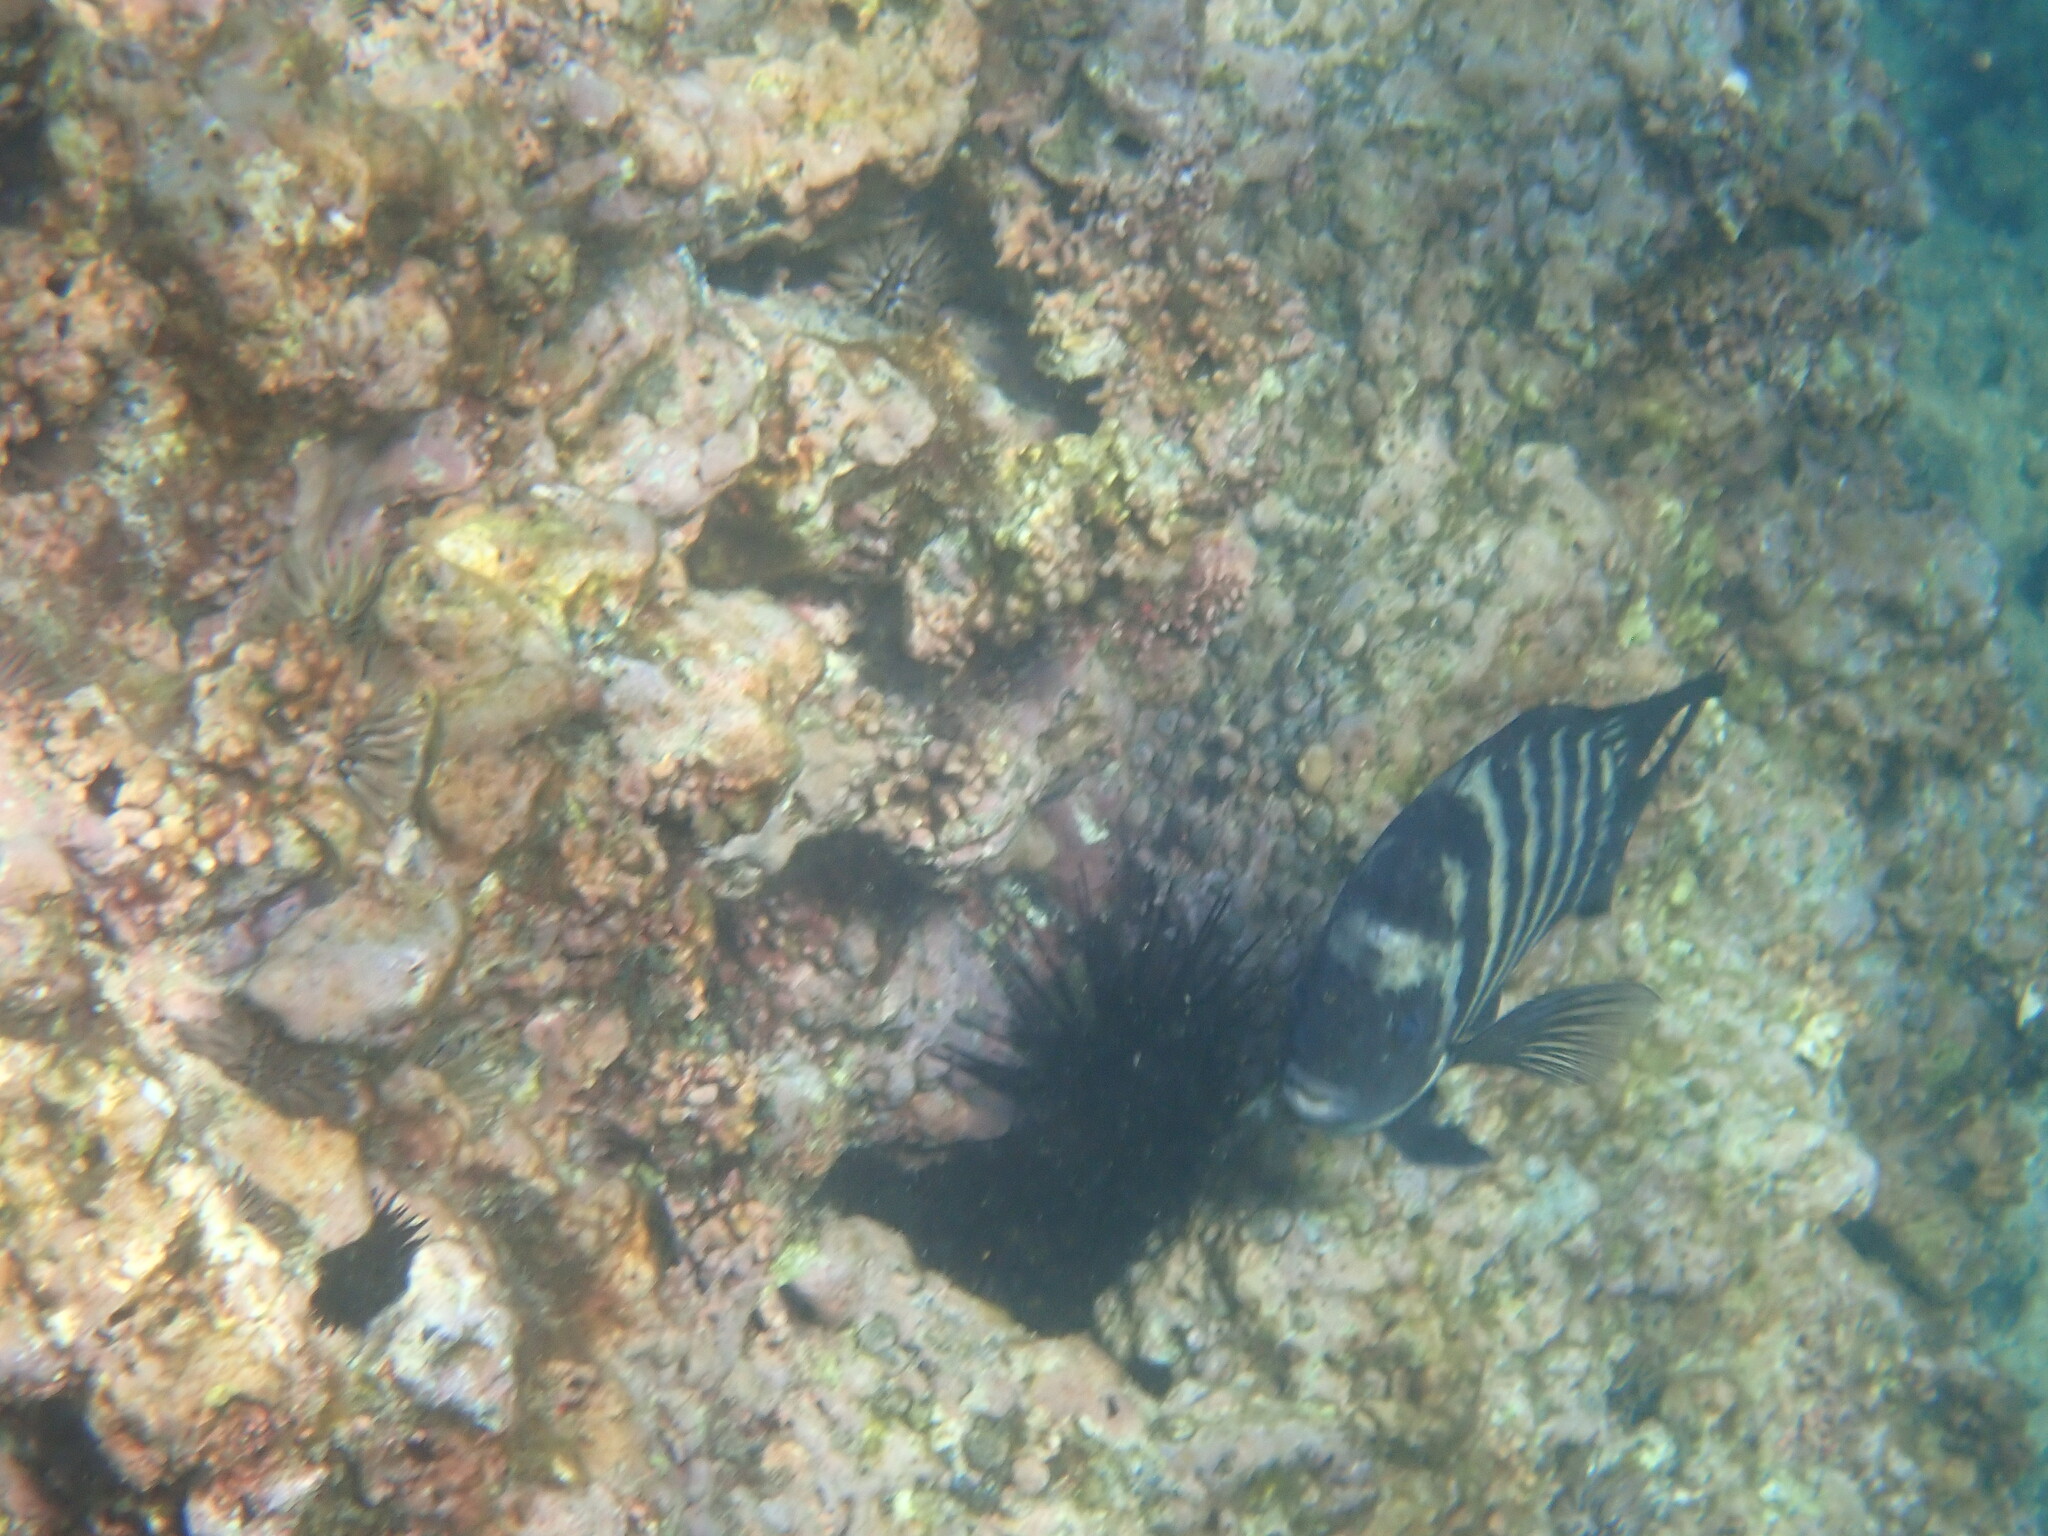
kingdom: Animalia
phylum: Chordata
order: Perciformes
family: Pomacentridae
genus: Abudefduf
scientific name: Abudefduf sordidus
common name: Blackspot sergeant
